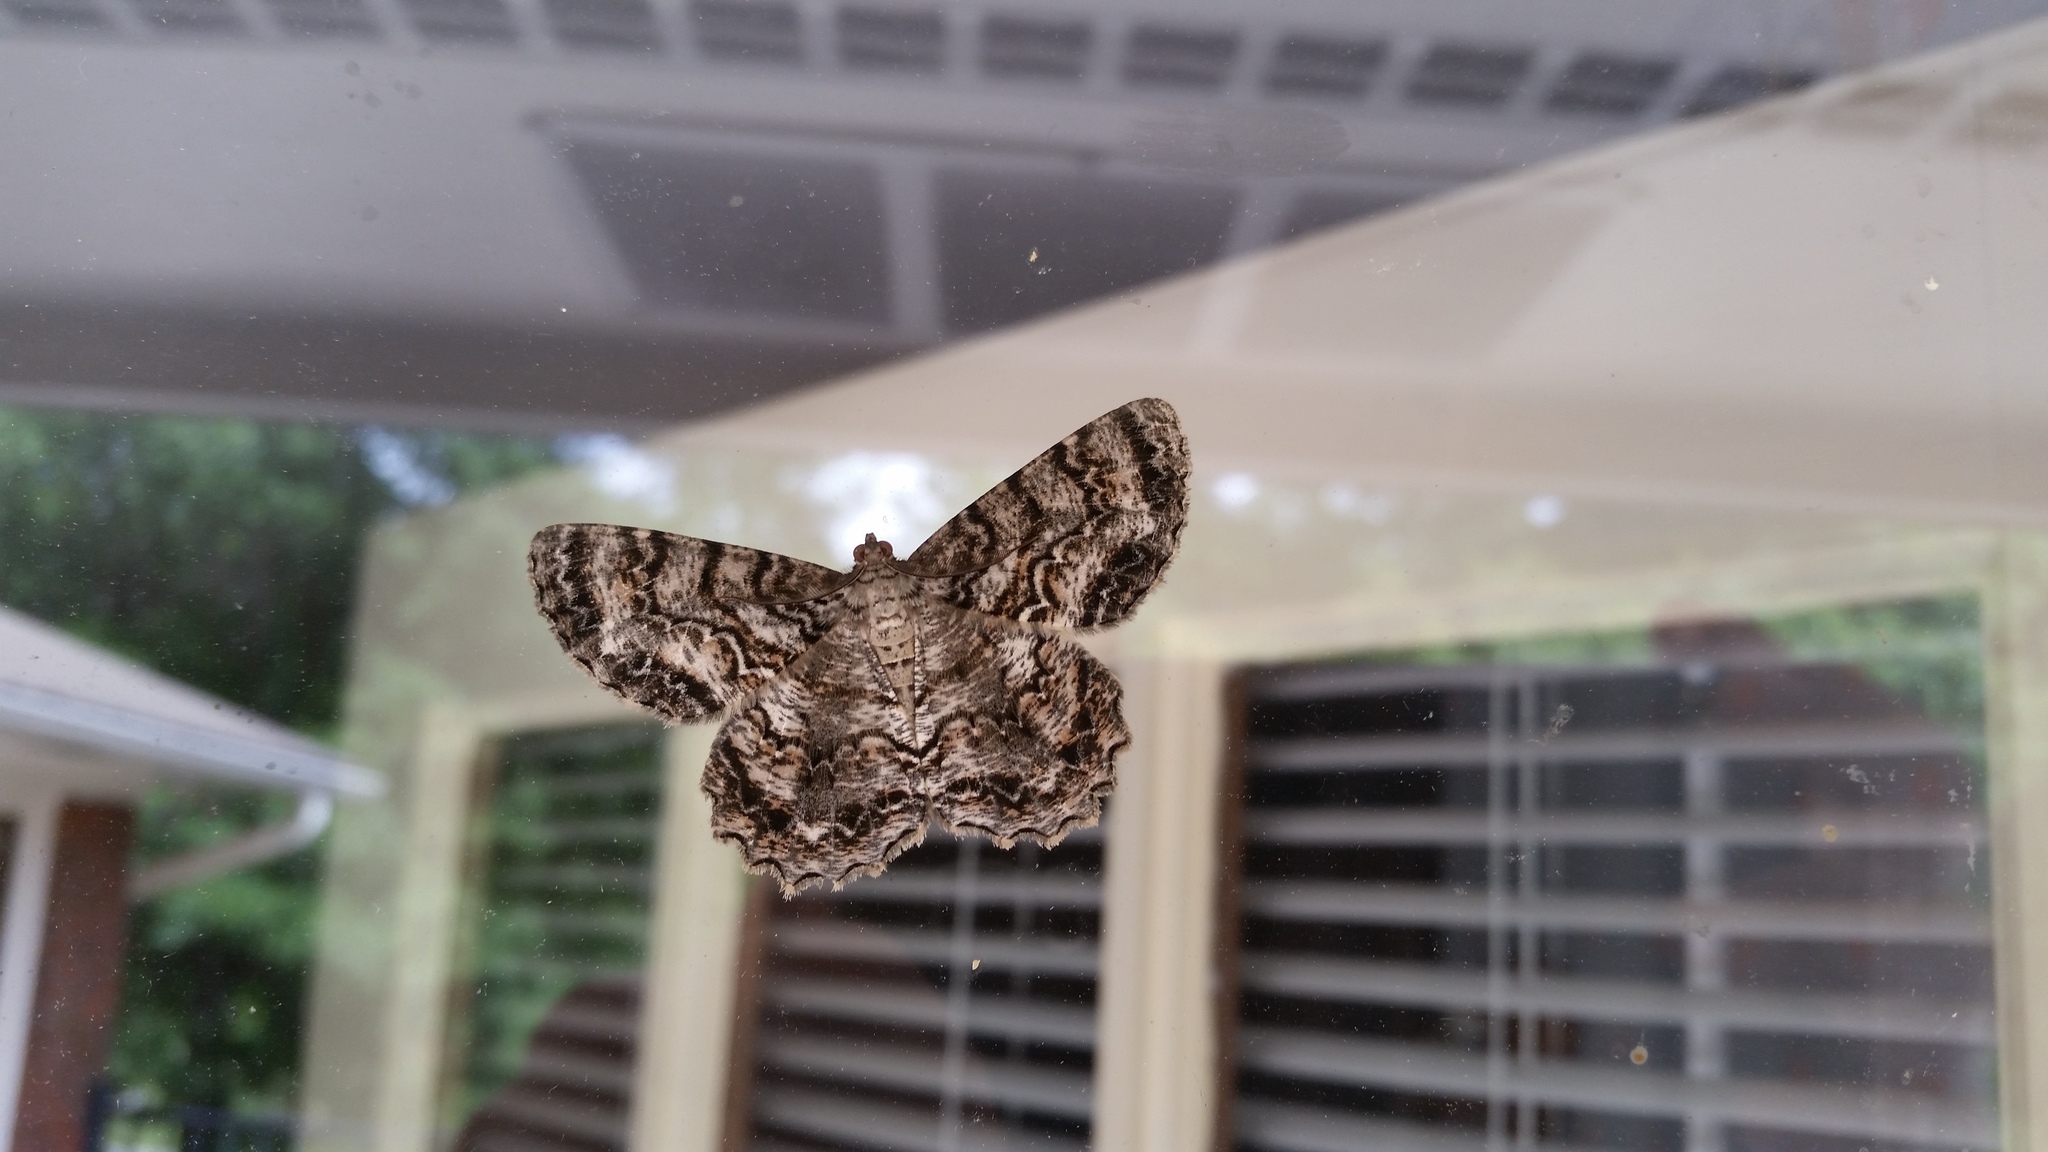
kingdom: Animalia
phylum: Arthropoda
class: Insecta
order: Lepidoptera
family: Geometridae
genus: Epimecis
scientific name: Epimecis hortaria
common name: Tulip-tree beauty
